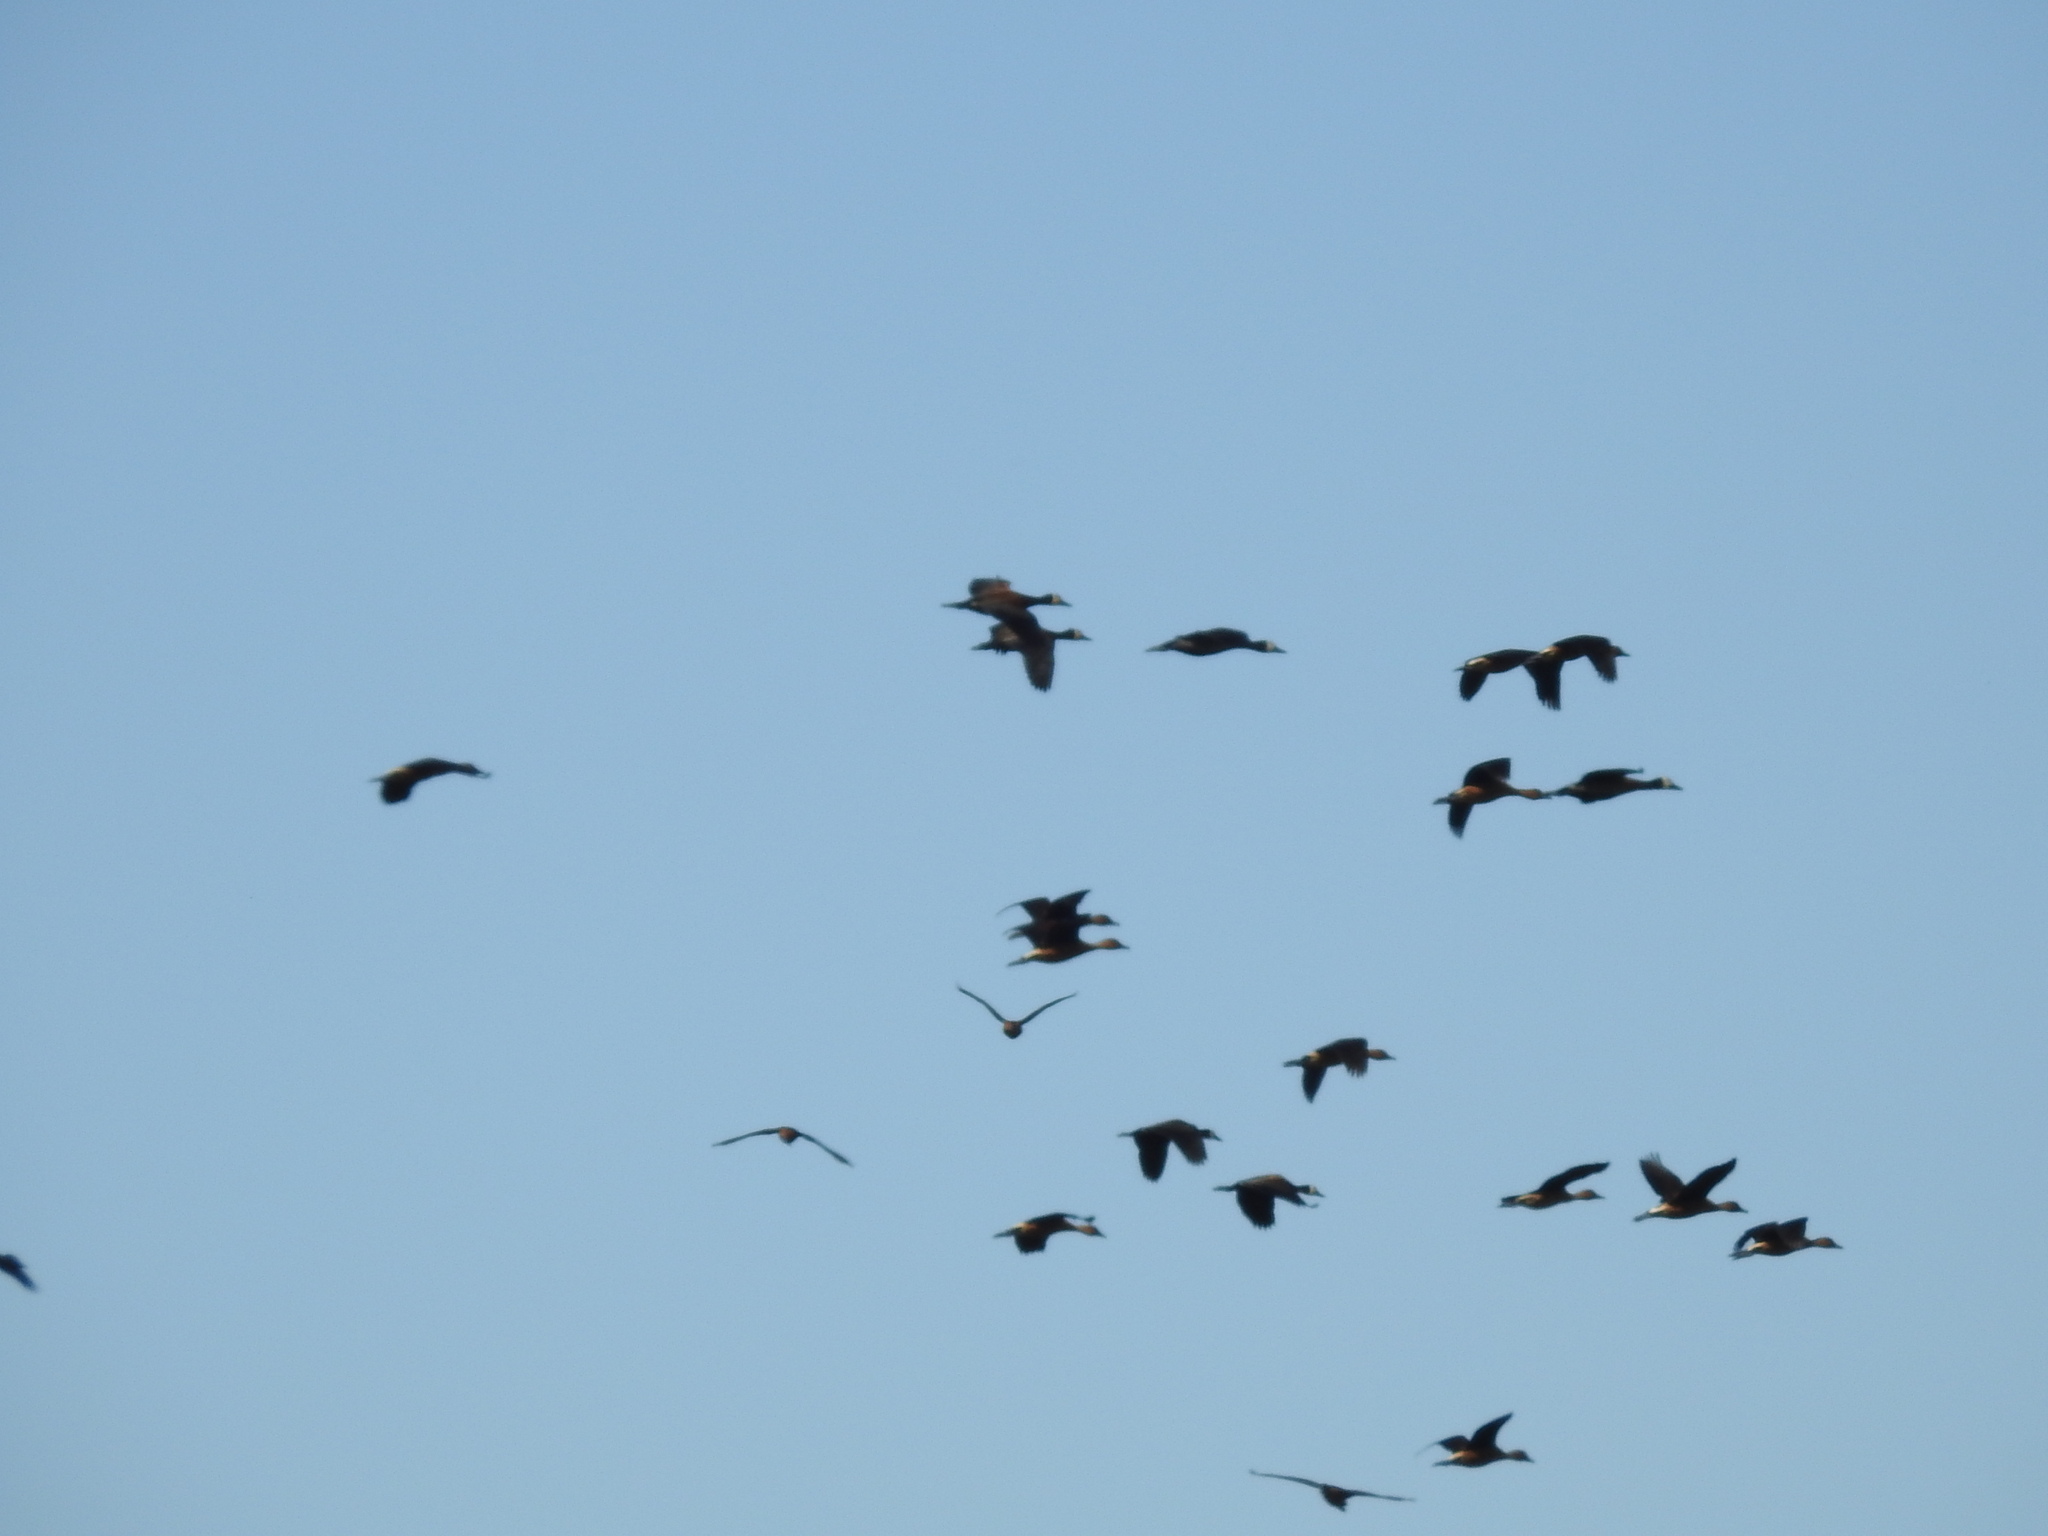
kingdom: Animalia
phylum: Chordata
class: Aves
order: Anseriformes
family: Anatidae
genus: Dendrocygna
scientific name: Dendrocygna viduata
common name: White-faced whistling duck
